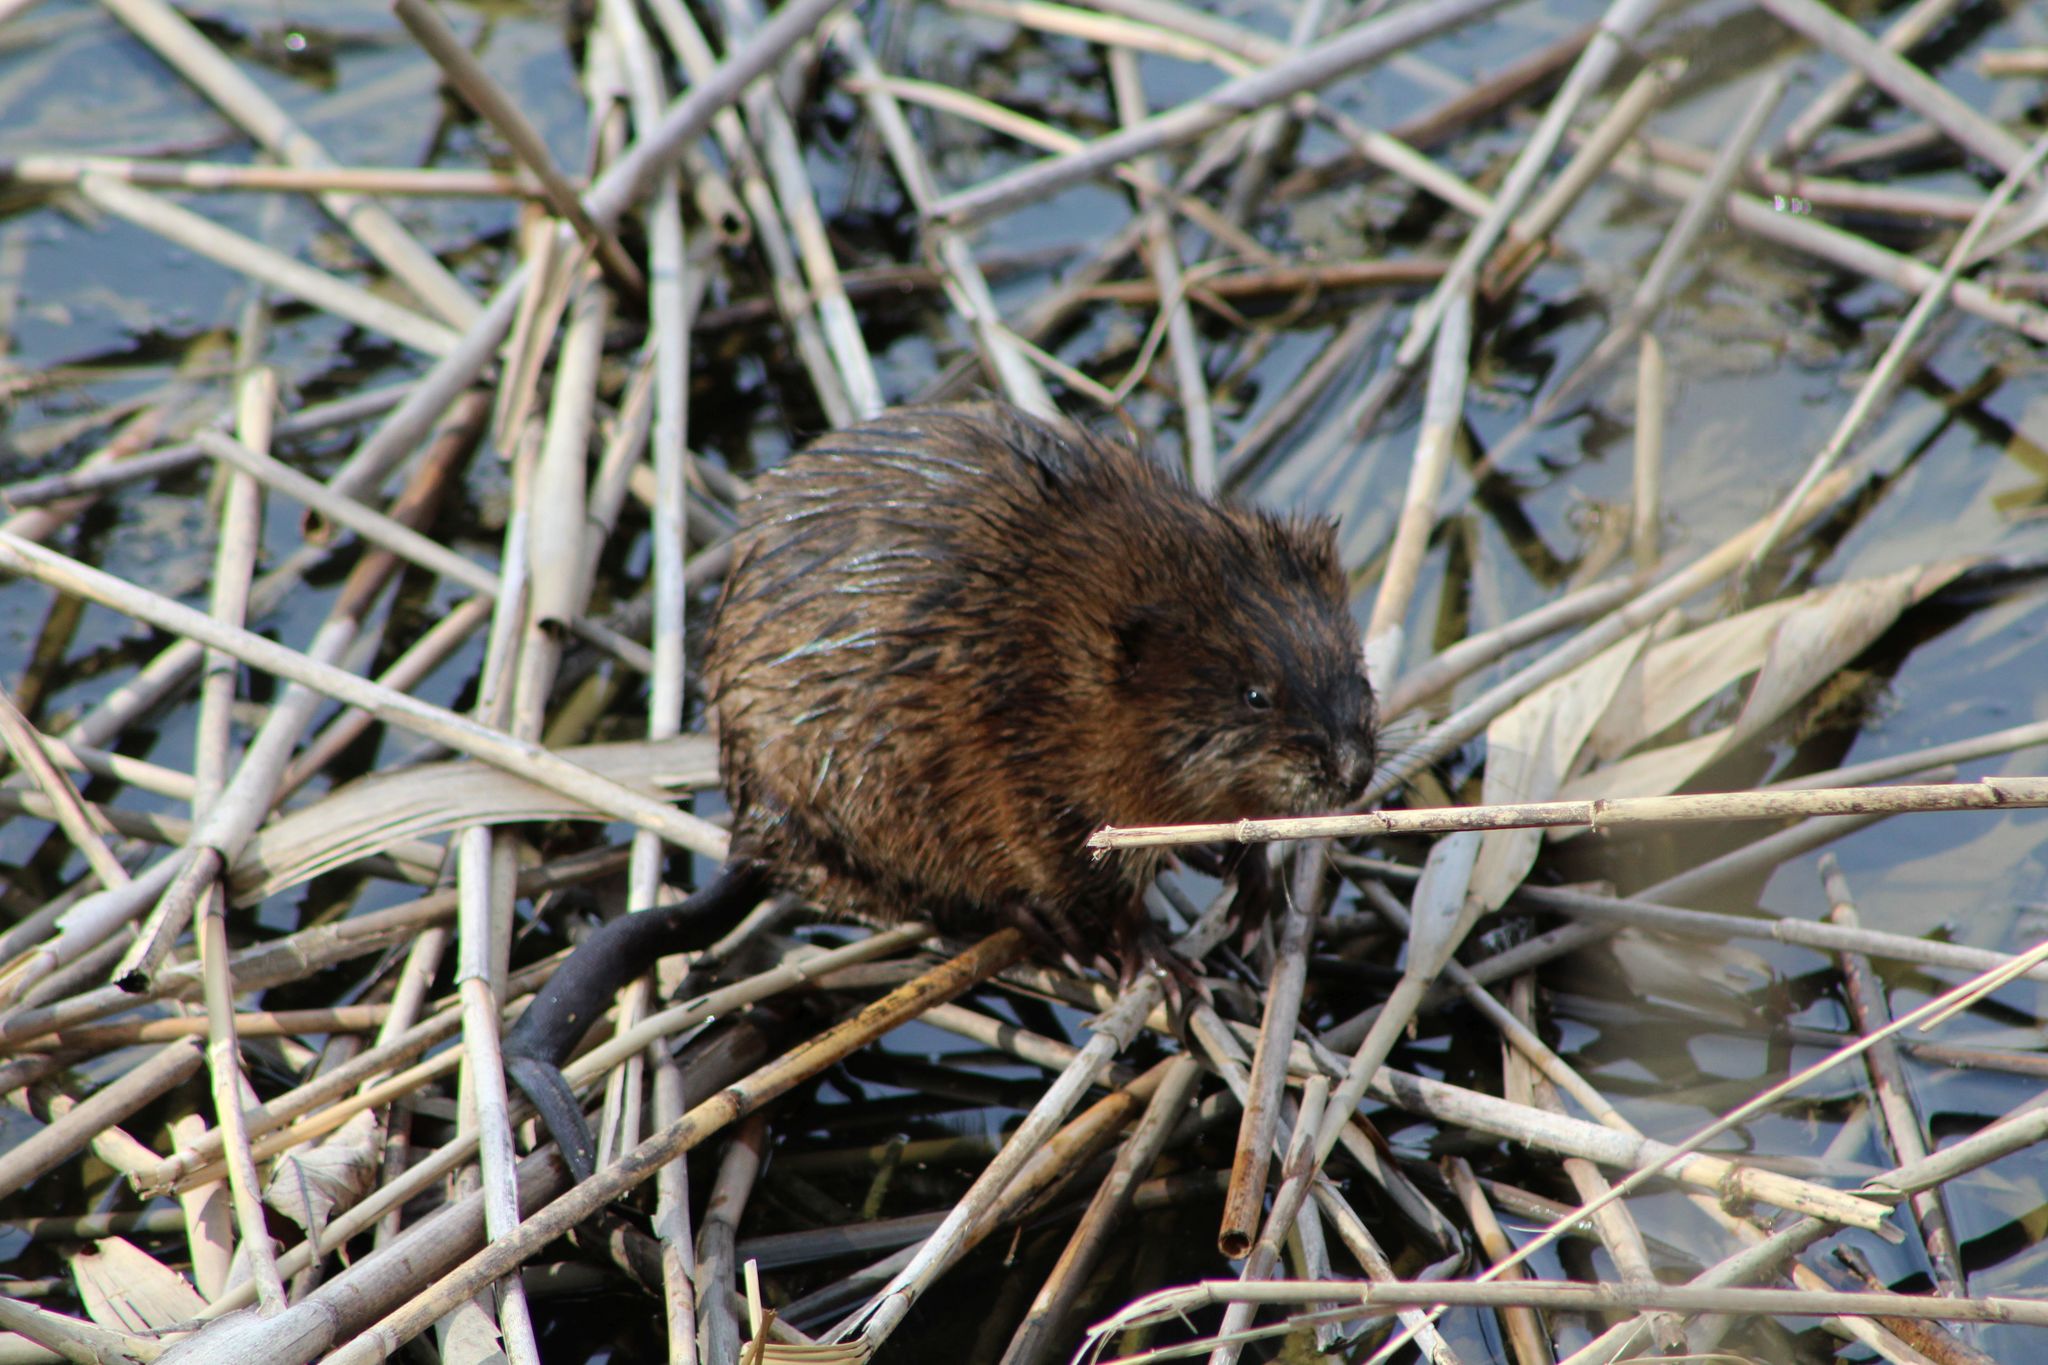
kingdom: Animalia
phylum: Chordata
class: Mammalia
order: Rodentia
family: Cricetidae
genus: Ondatra
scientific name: Ondatra zibethicus
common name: Muskrat
